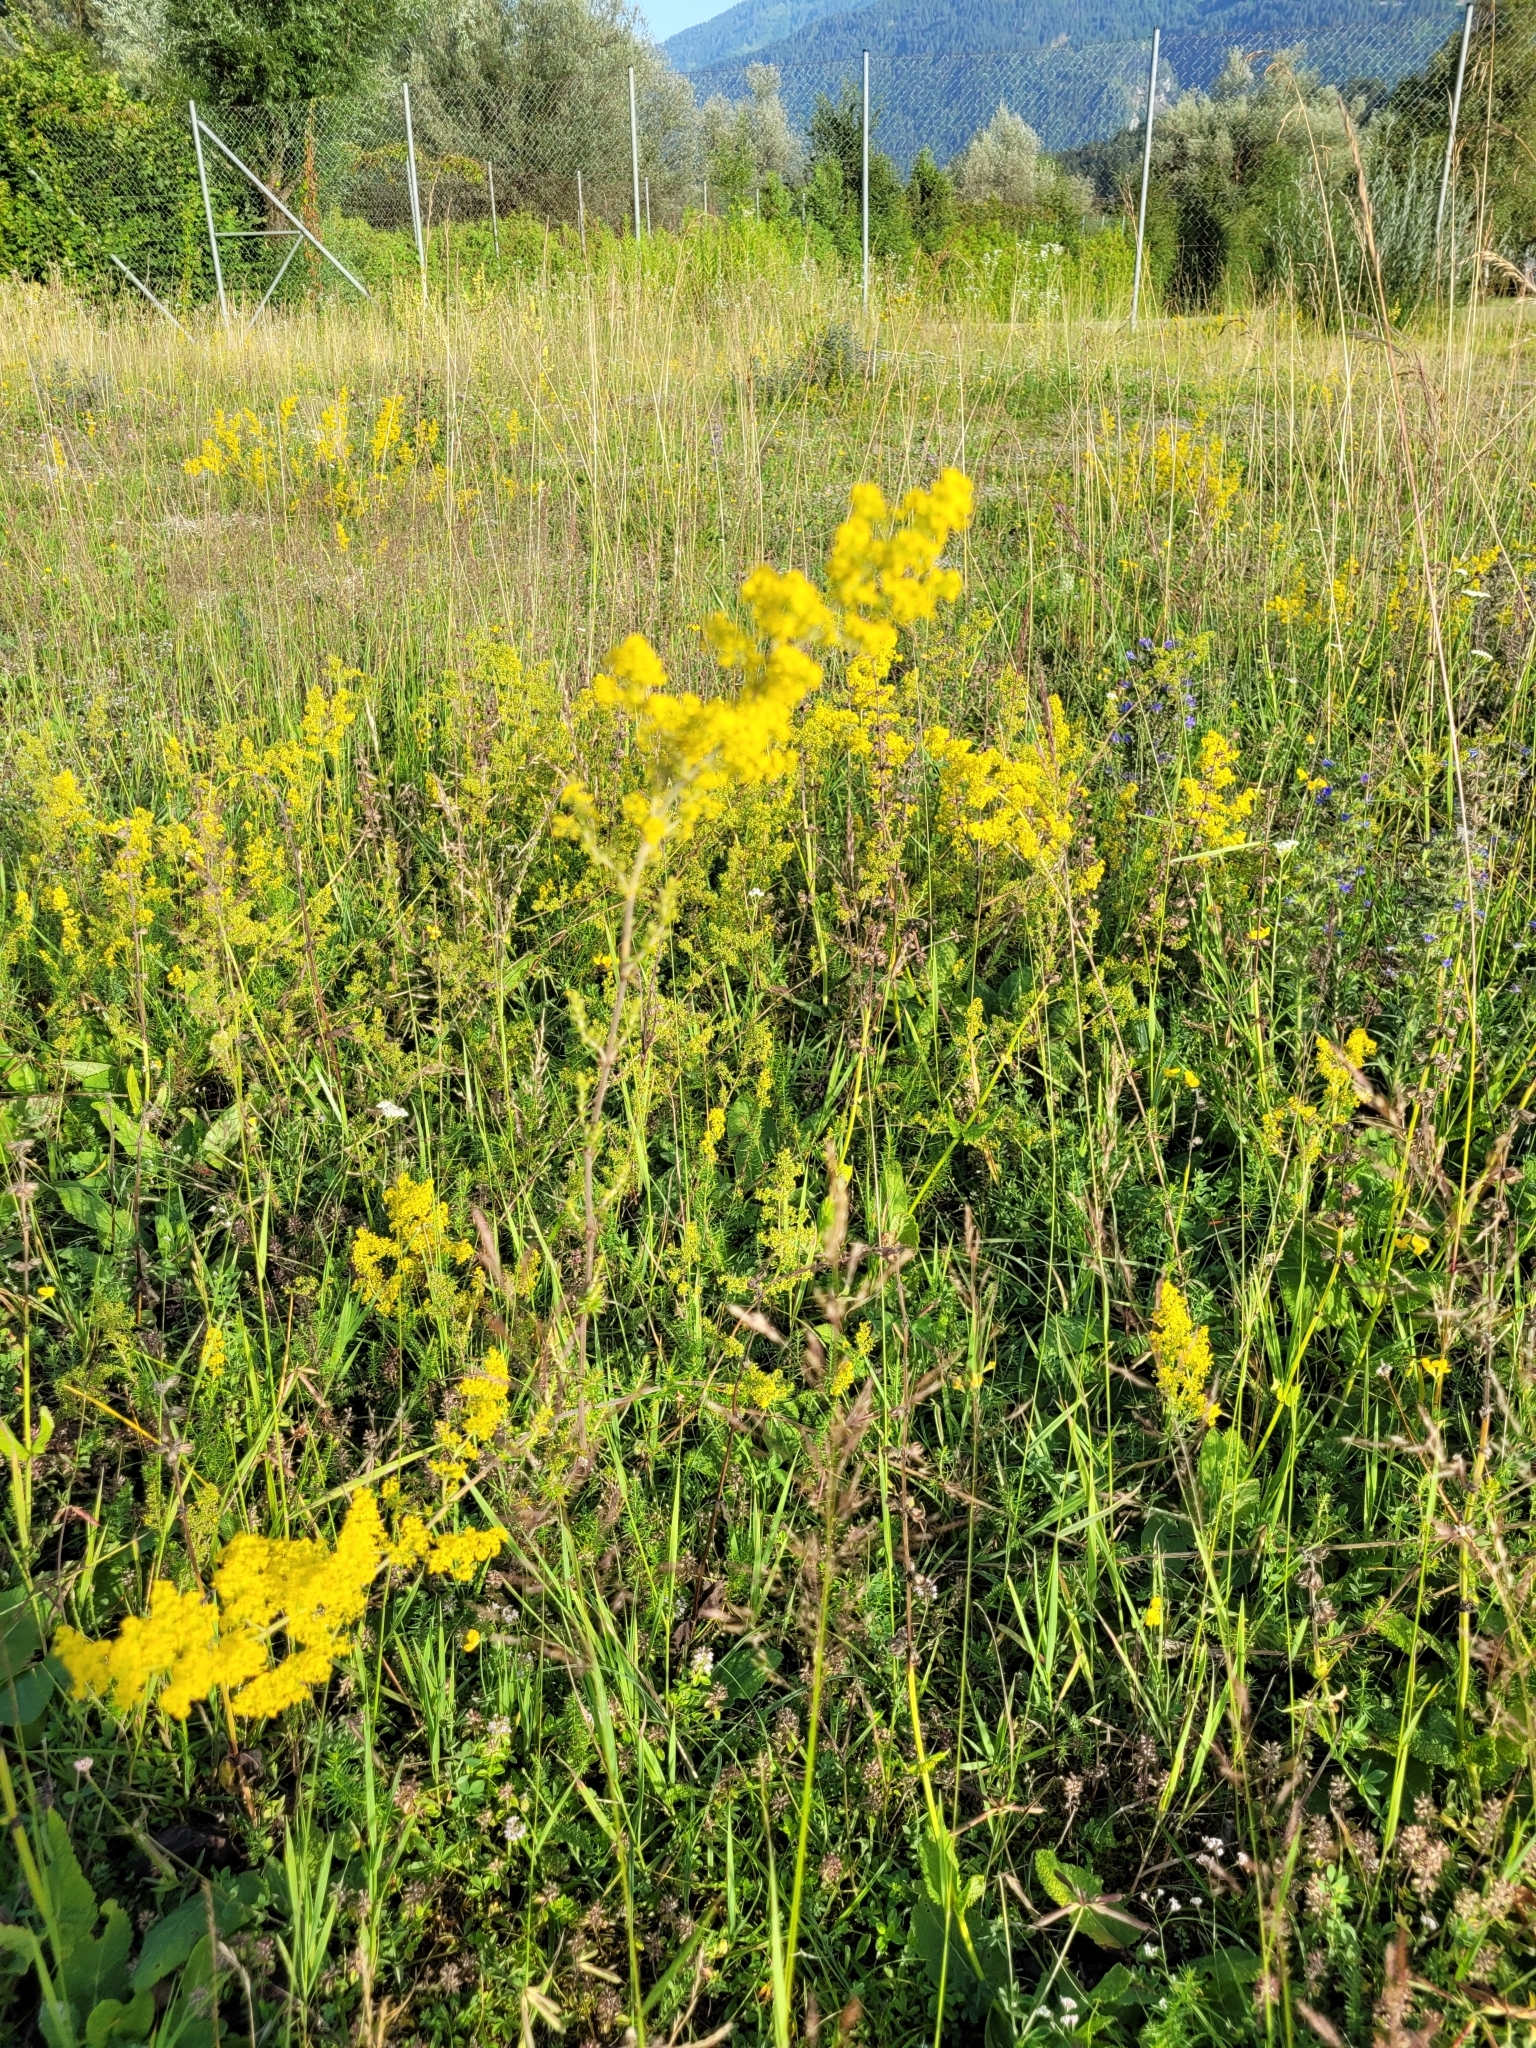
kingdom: Plantae
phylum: Tracheophyta
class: Magnoliopsida
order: Gentianales
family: Rubiaceae
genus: Galium
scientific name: Galium verum
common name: Lady's bedstraw
